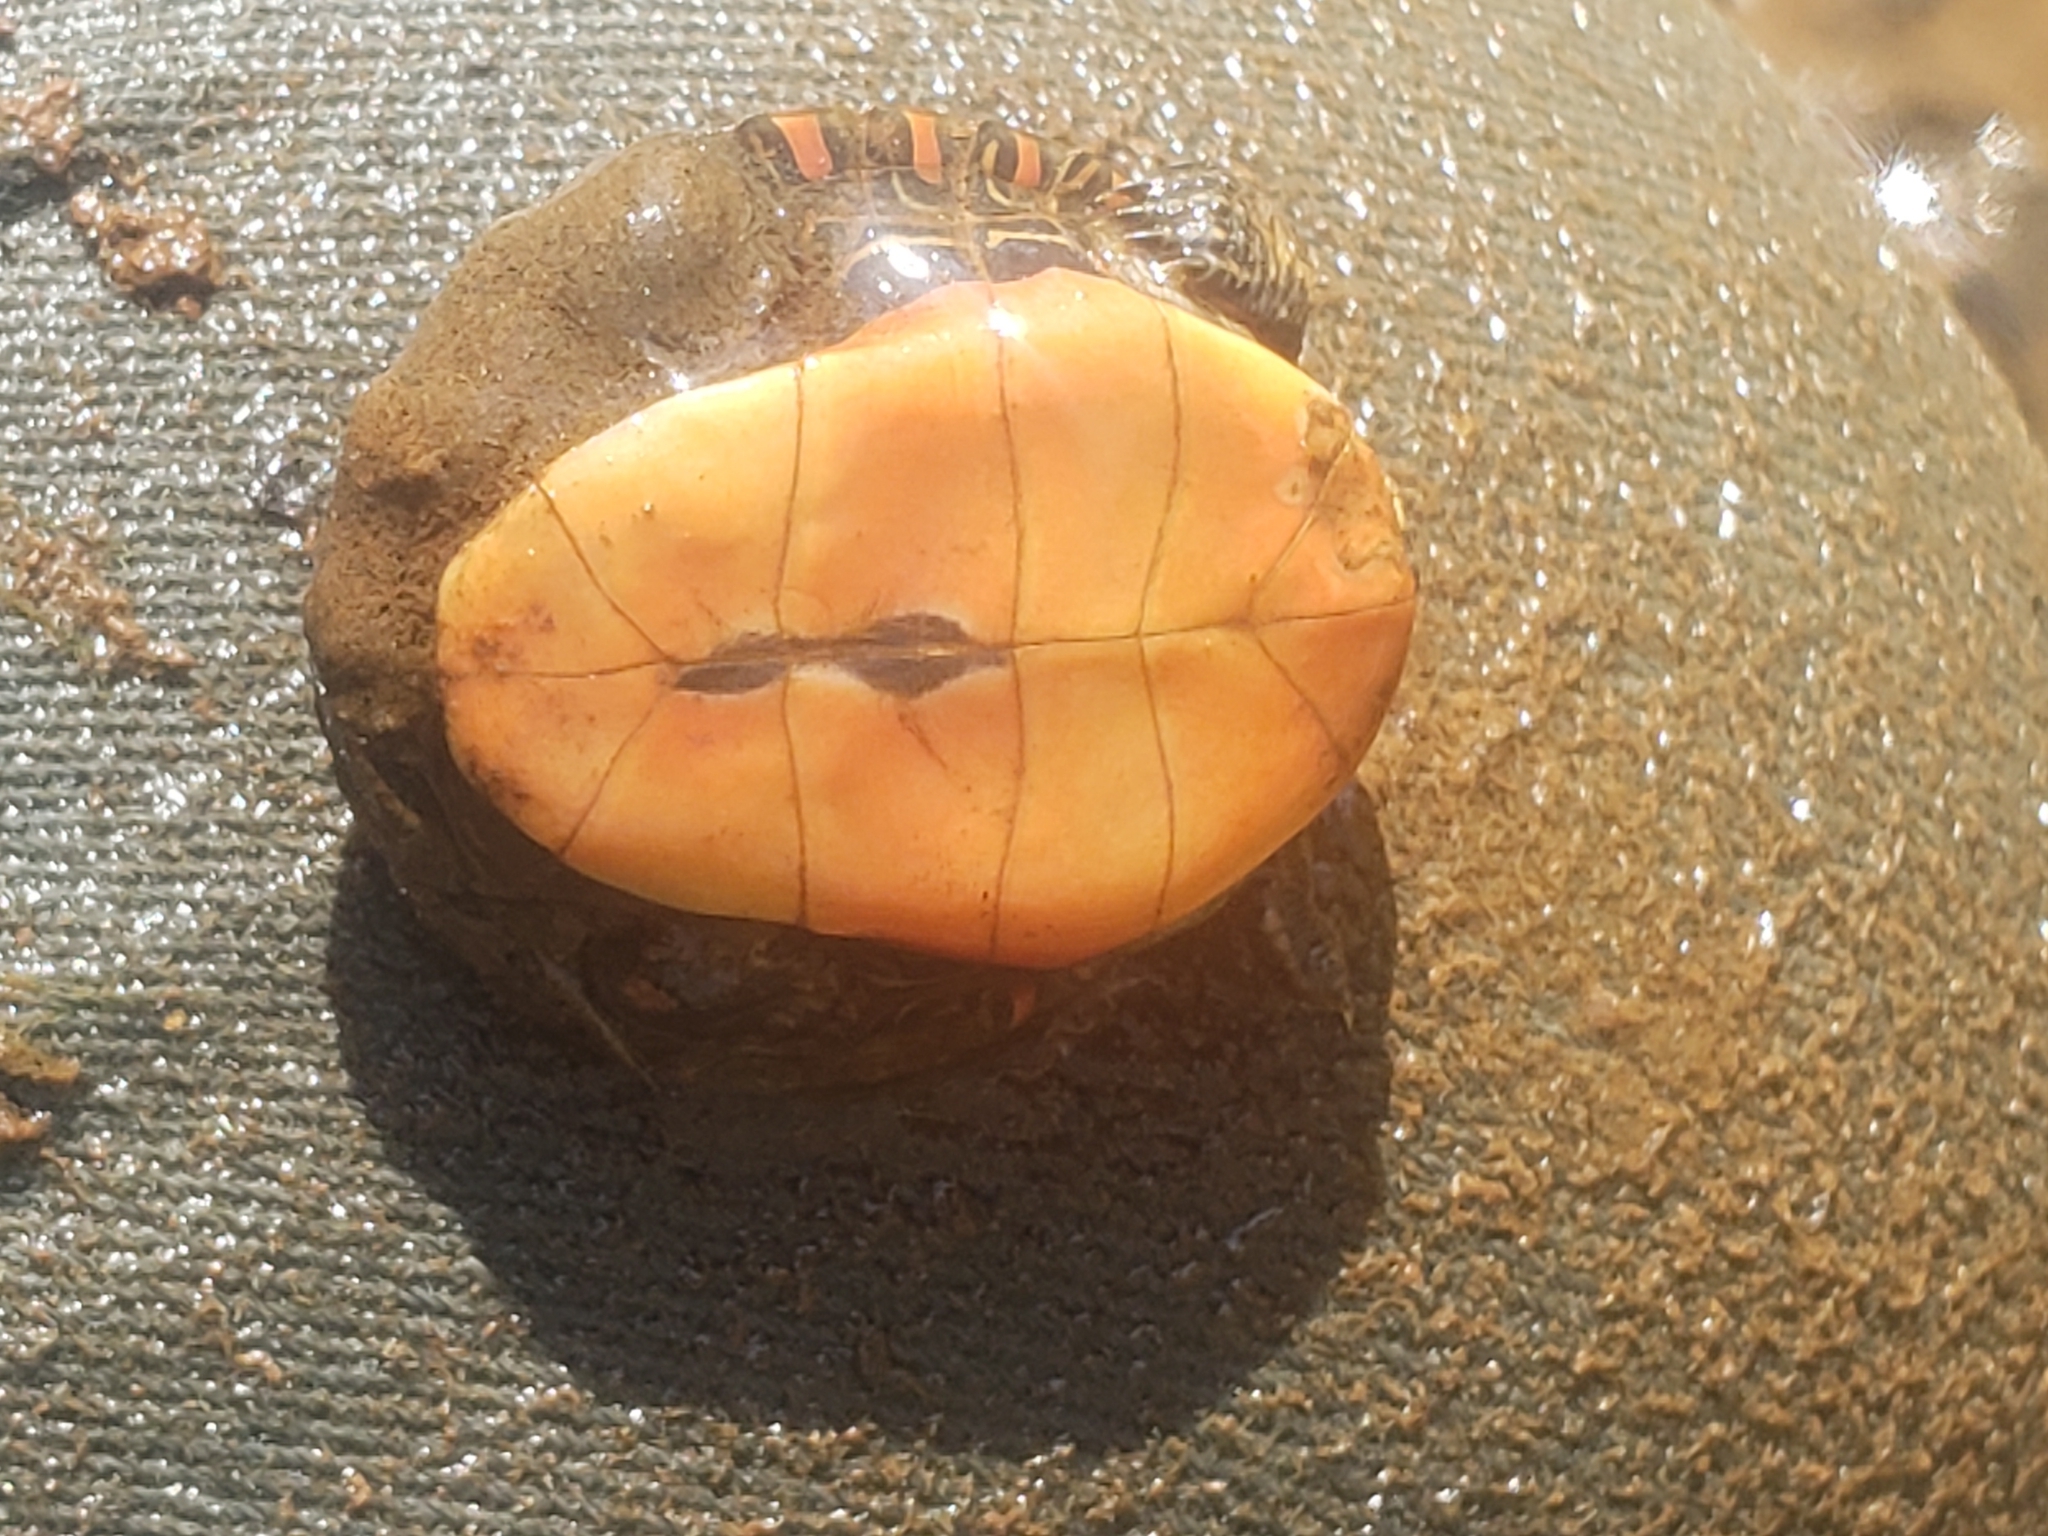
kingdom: Animalia
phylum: Chordata
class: Testudines
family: Emydidae
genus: Chrysemys
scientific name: Chrysemys picta
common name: Painted turtle
